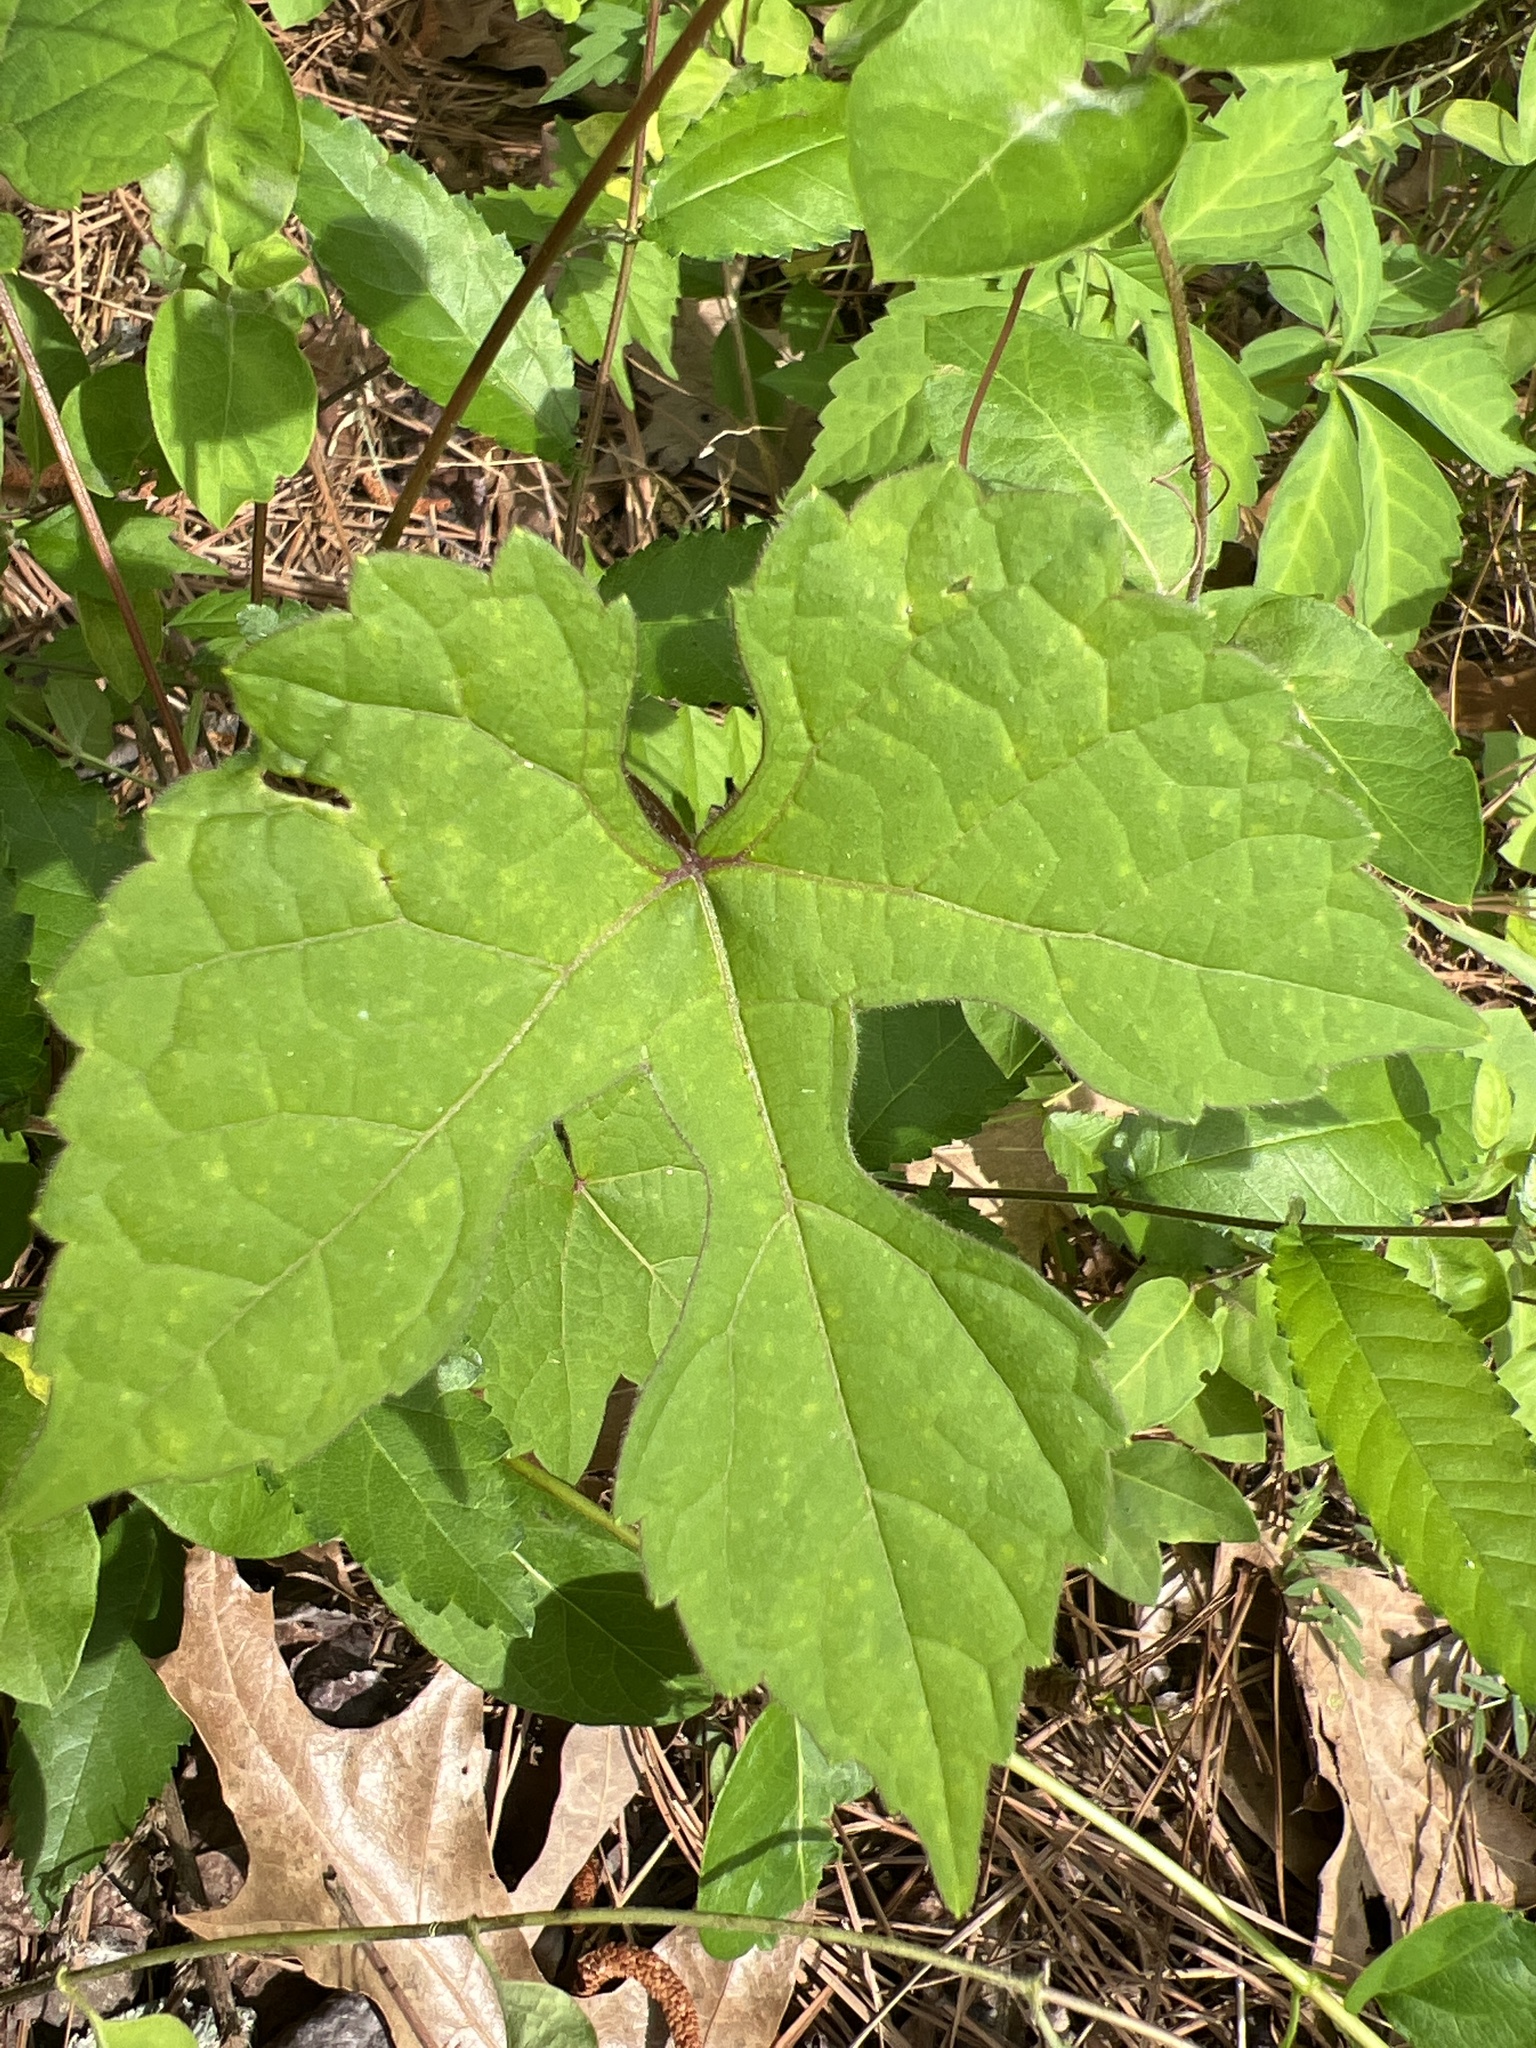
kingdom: Plantae
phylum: Tracheophyta
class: Magnoliopsida
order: Vitales
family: Vitaceae
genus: Ampelopsis
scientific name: Ampelopsis glandulosa
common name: Amur peppervine
